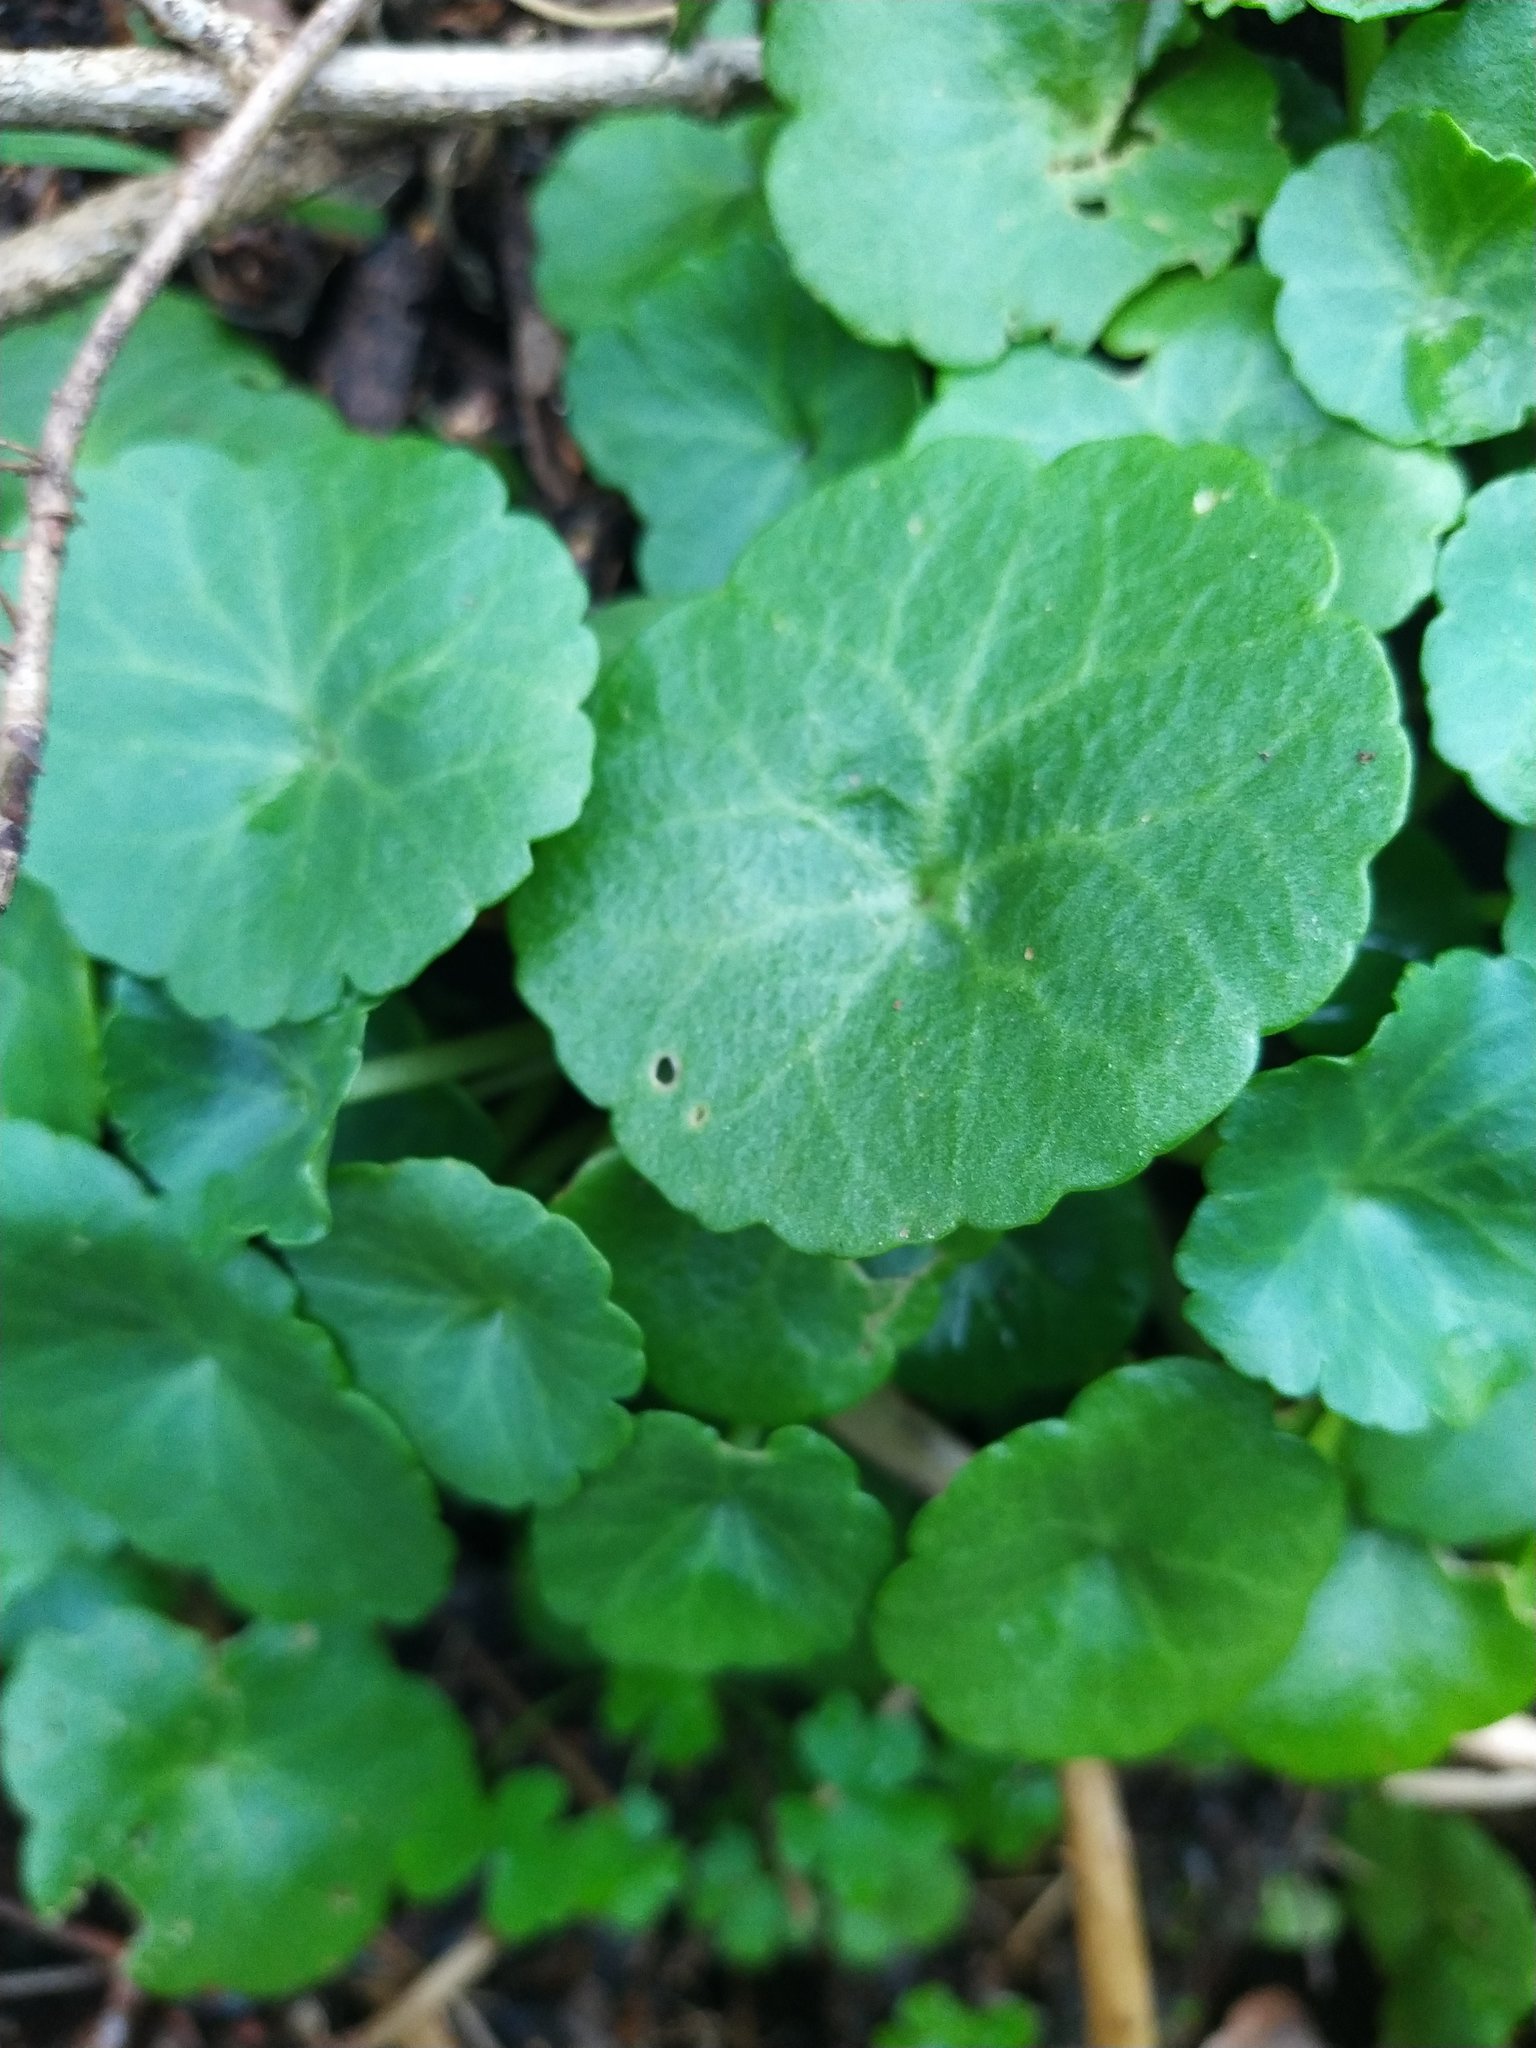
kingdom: Plantae
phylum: Tracheophyta
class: Magnoliopsida
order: Saxifragales
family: Crassulaceae
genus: Umbilicus
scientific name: Umbilicus rupestris
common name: Navelwort
